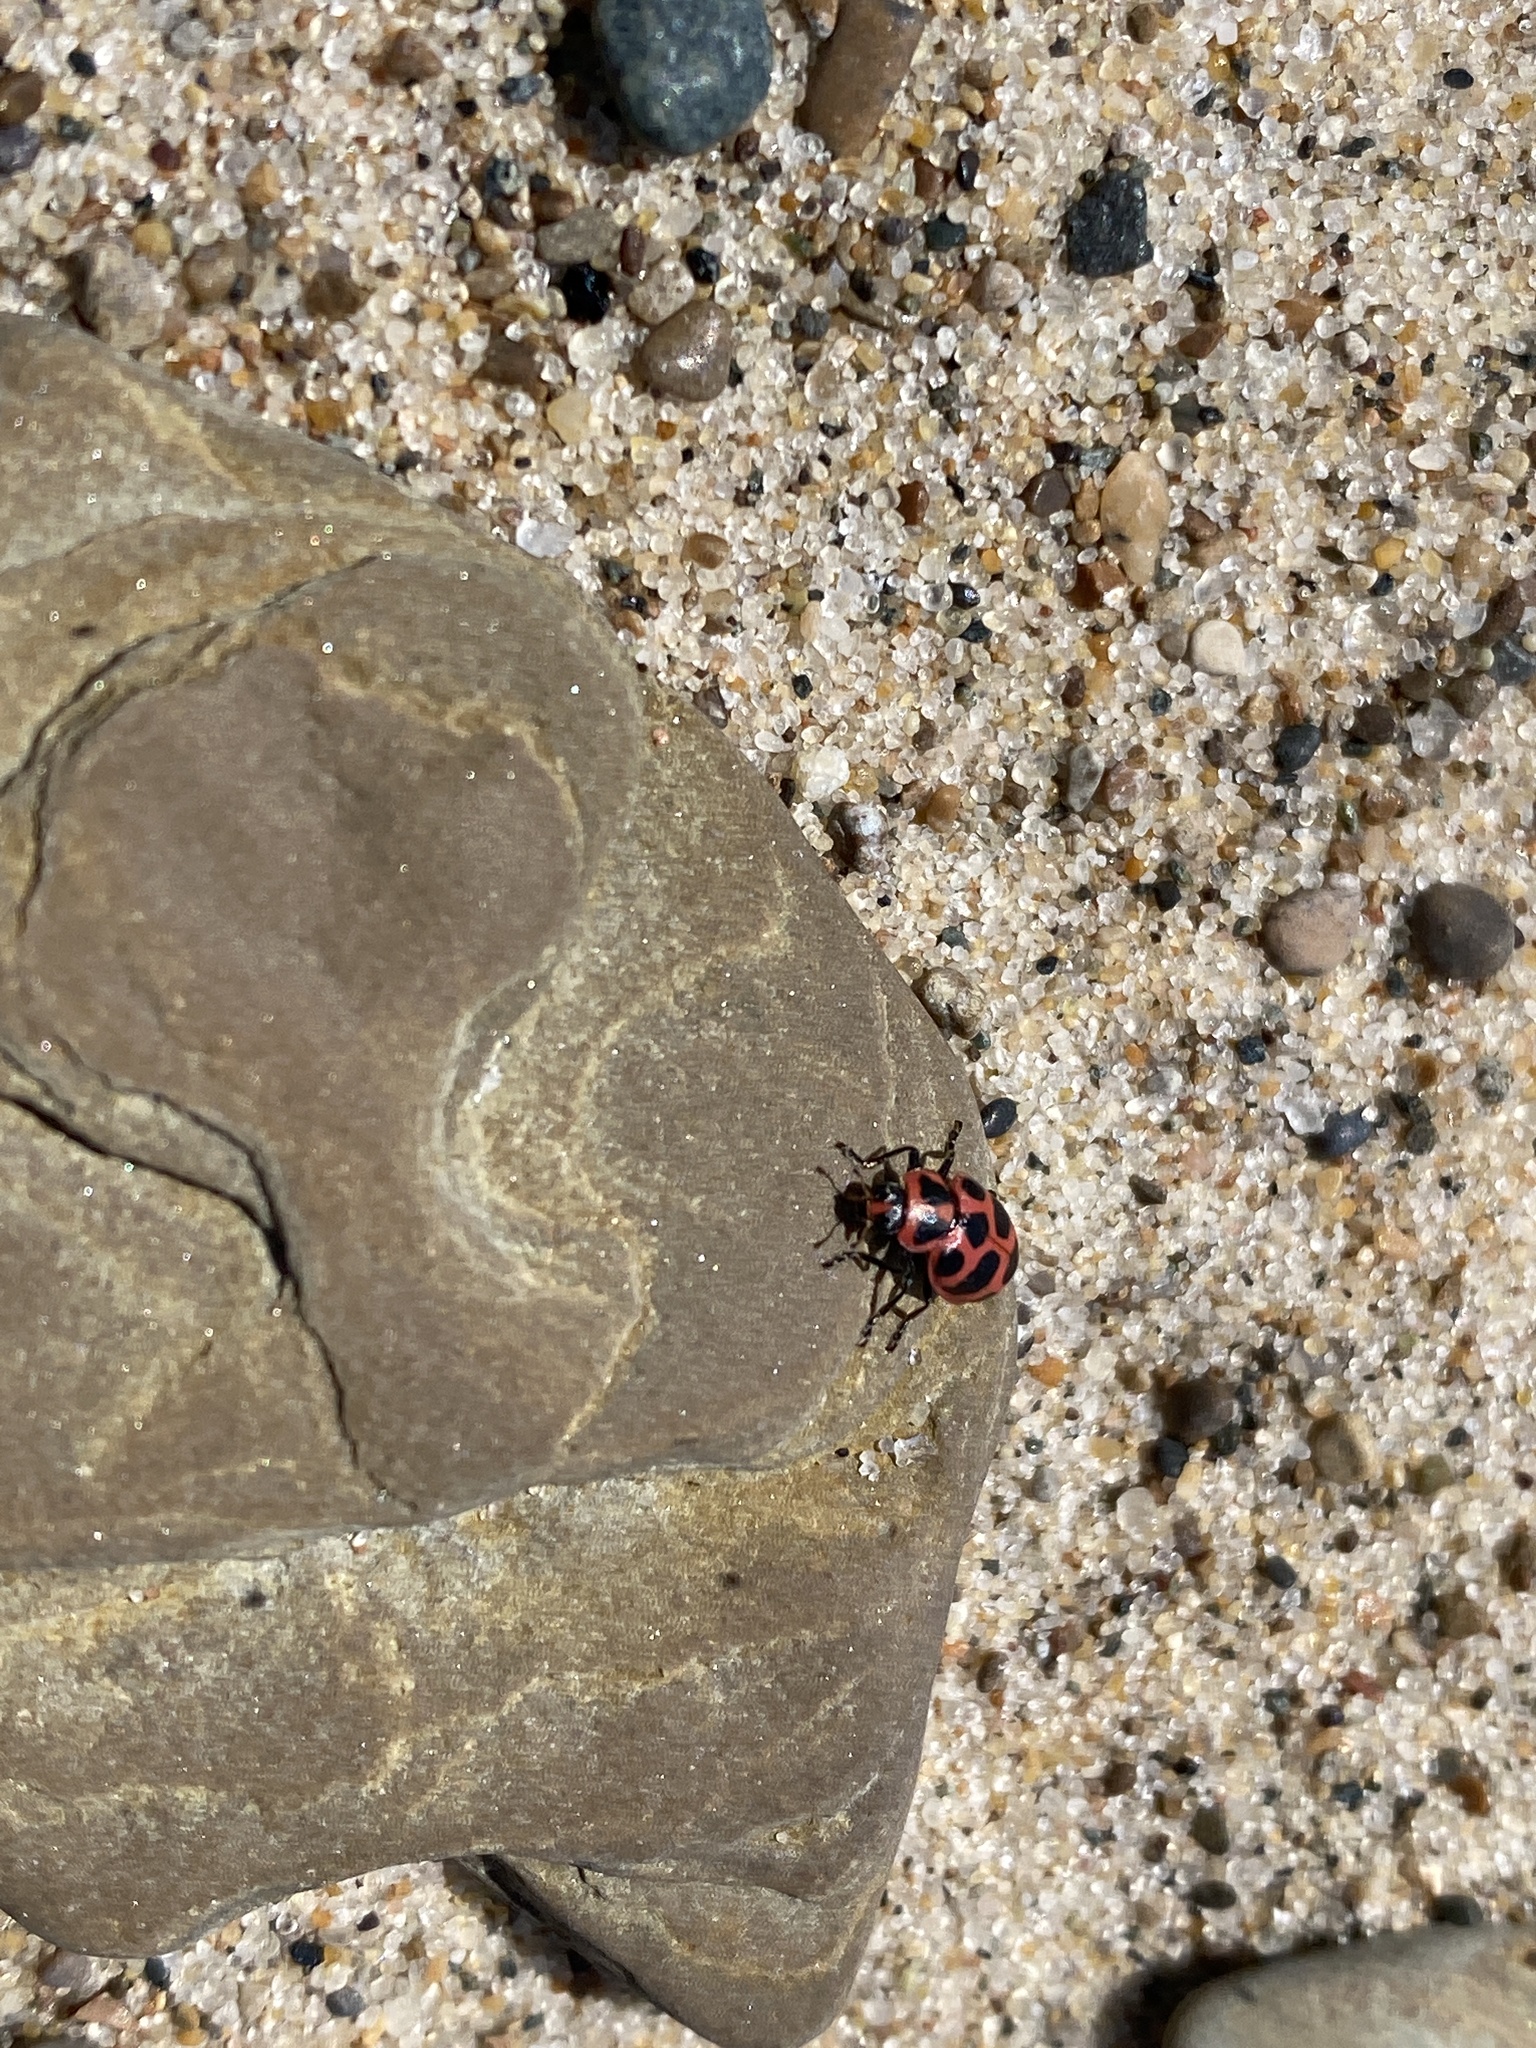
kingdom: Animalia
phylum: Arthropoda
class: Insecta
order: Coleoptera
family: Coccinellidae
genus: Coleomegilla
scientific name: Coleomegilla maculata
